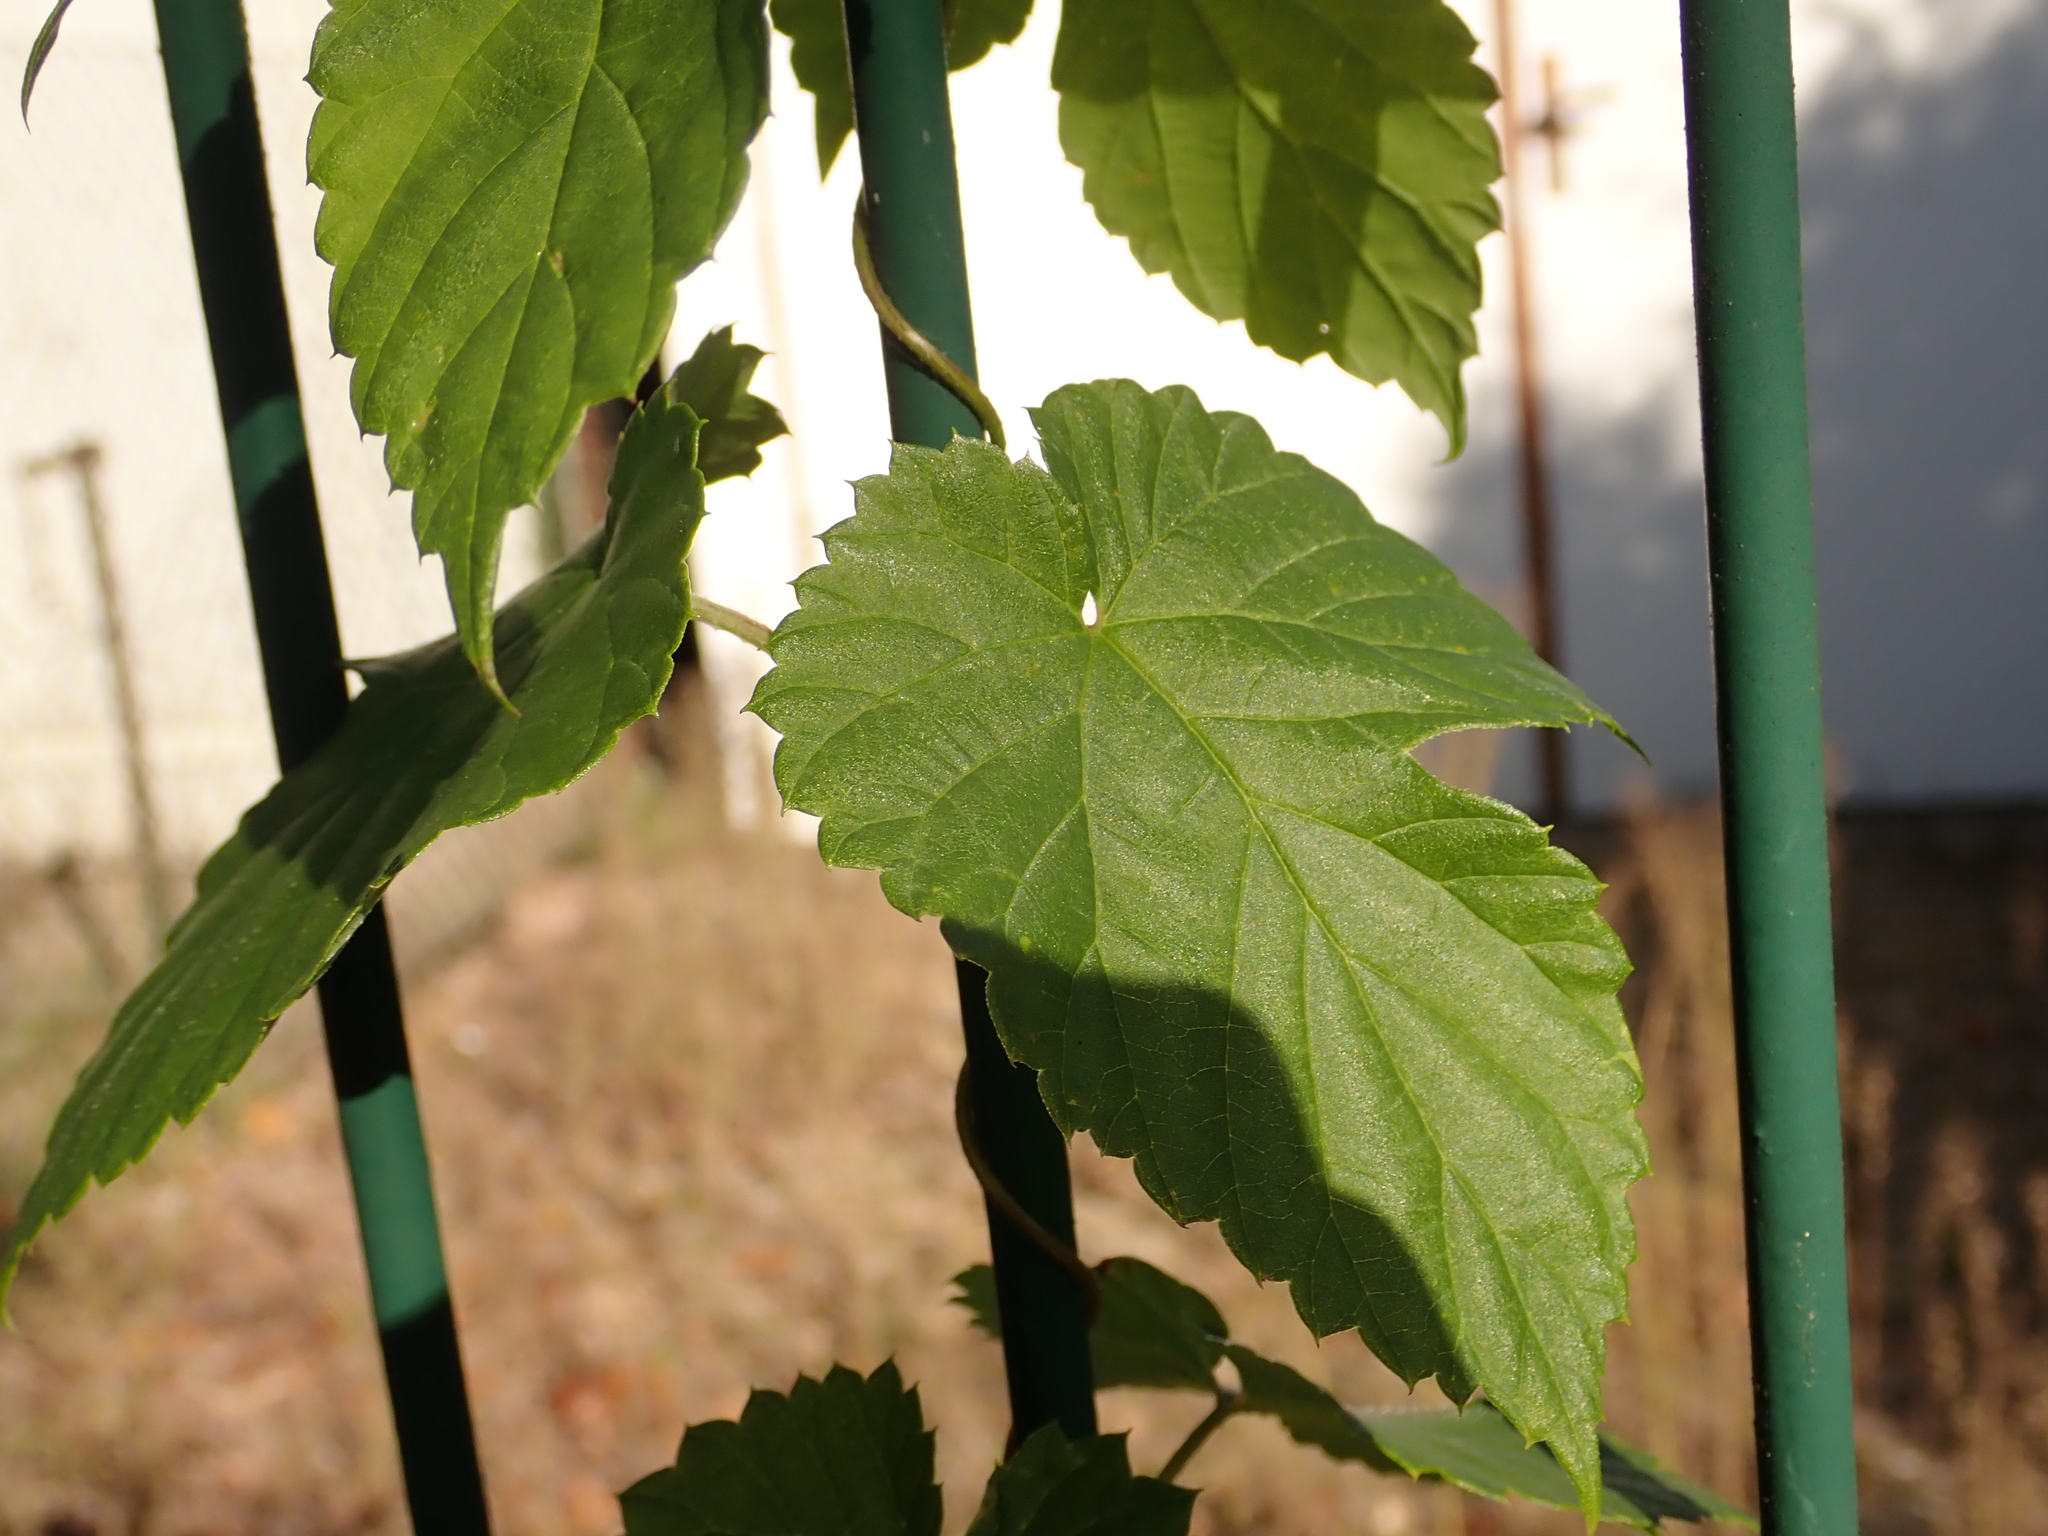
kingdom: Plantae
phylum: Tracheophyta
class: Magnoliopsida
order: Rosales
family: Cannabaceae
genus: Humulus
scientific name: Humulus lupulus
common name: Hop
